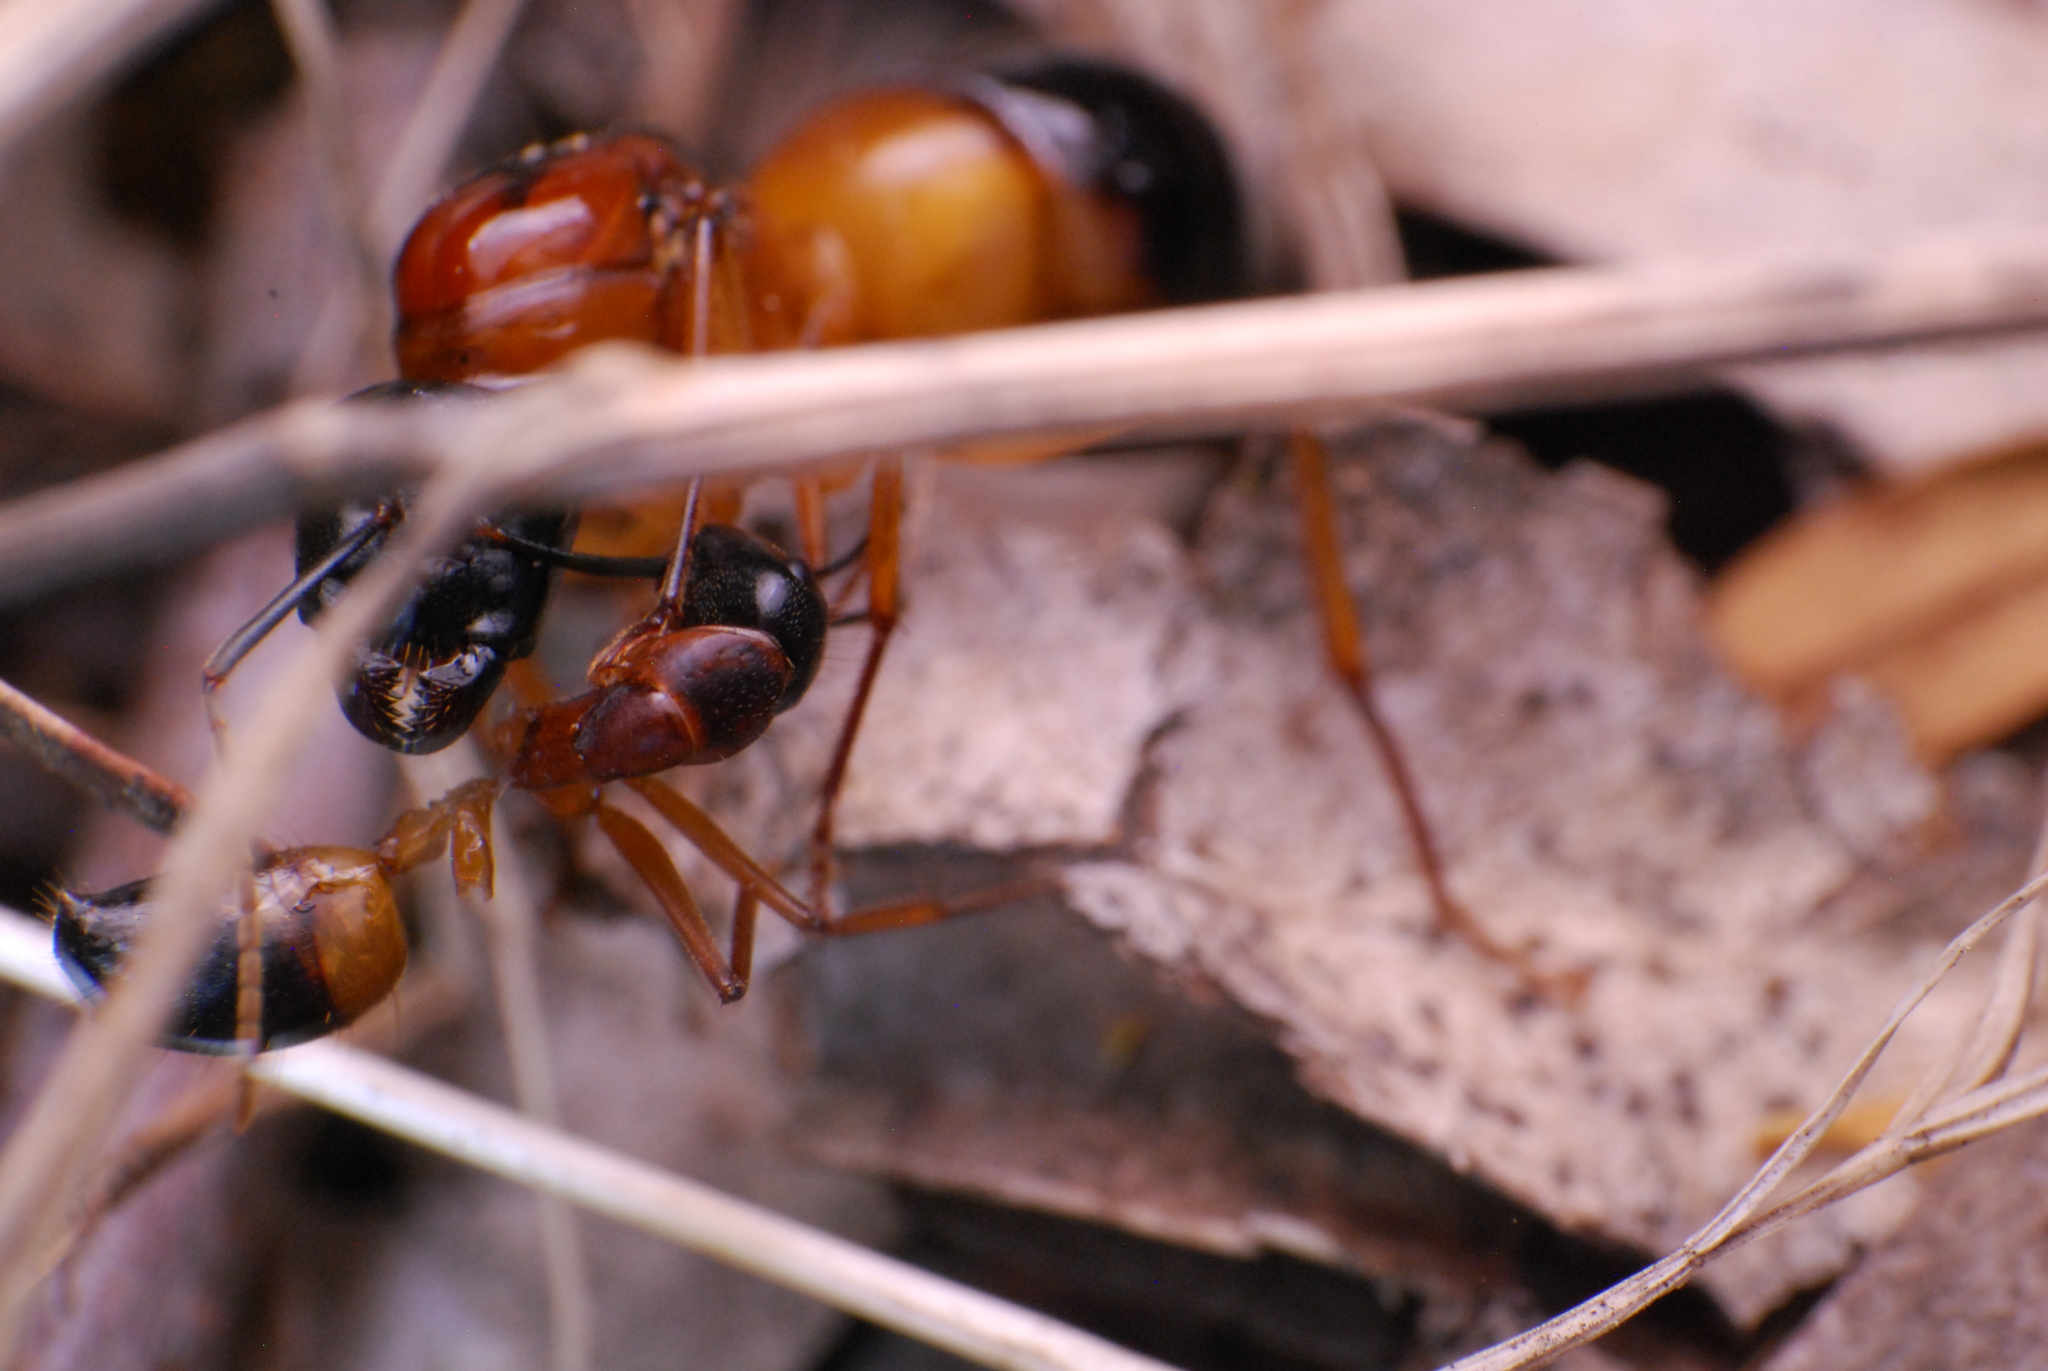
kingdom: Animalia
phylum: Arthropoda
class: Insecta
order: Hymenoptera
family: Formicidae
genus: Camponotus
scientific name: Camponotus consobrinus
